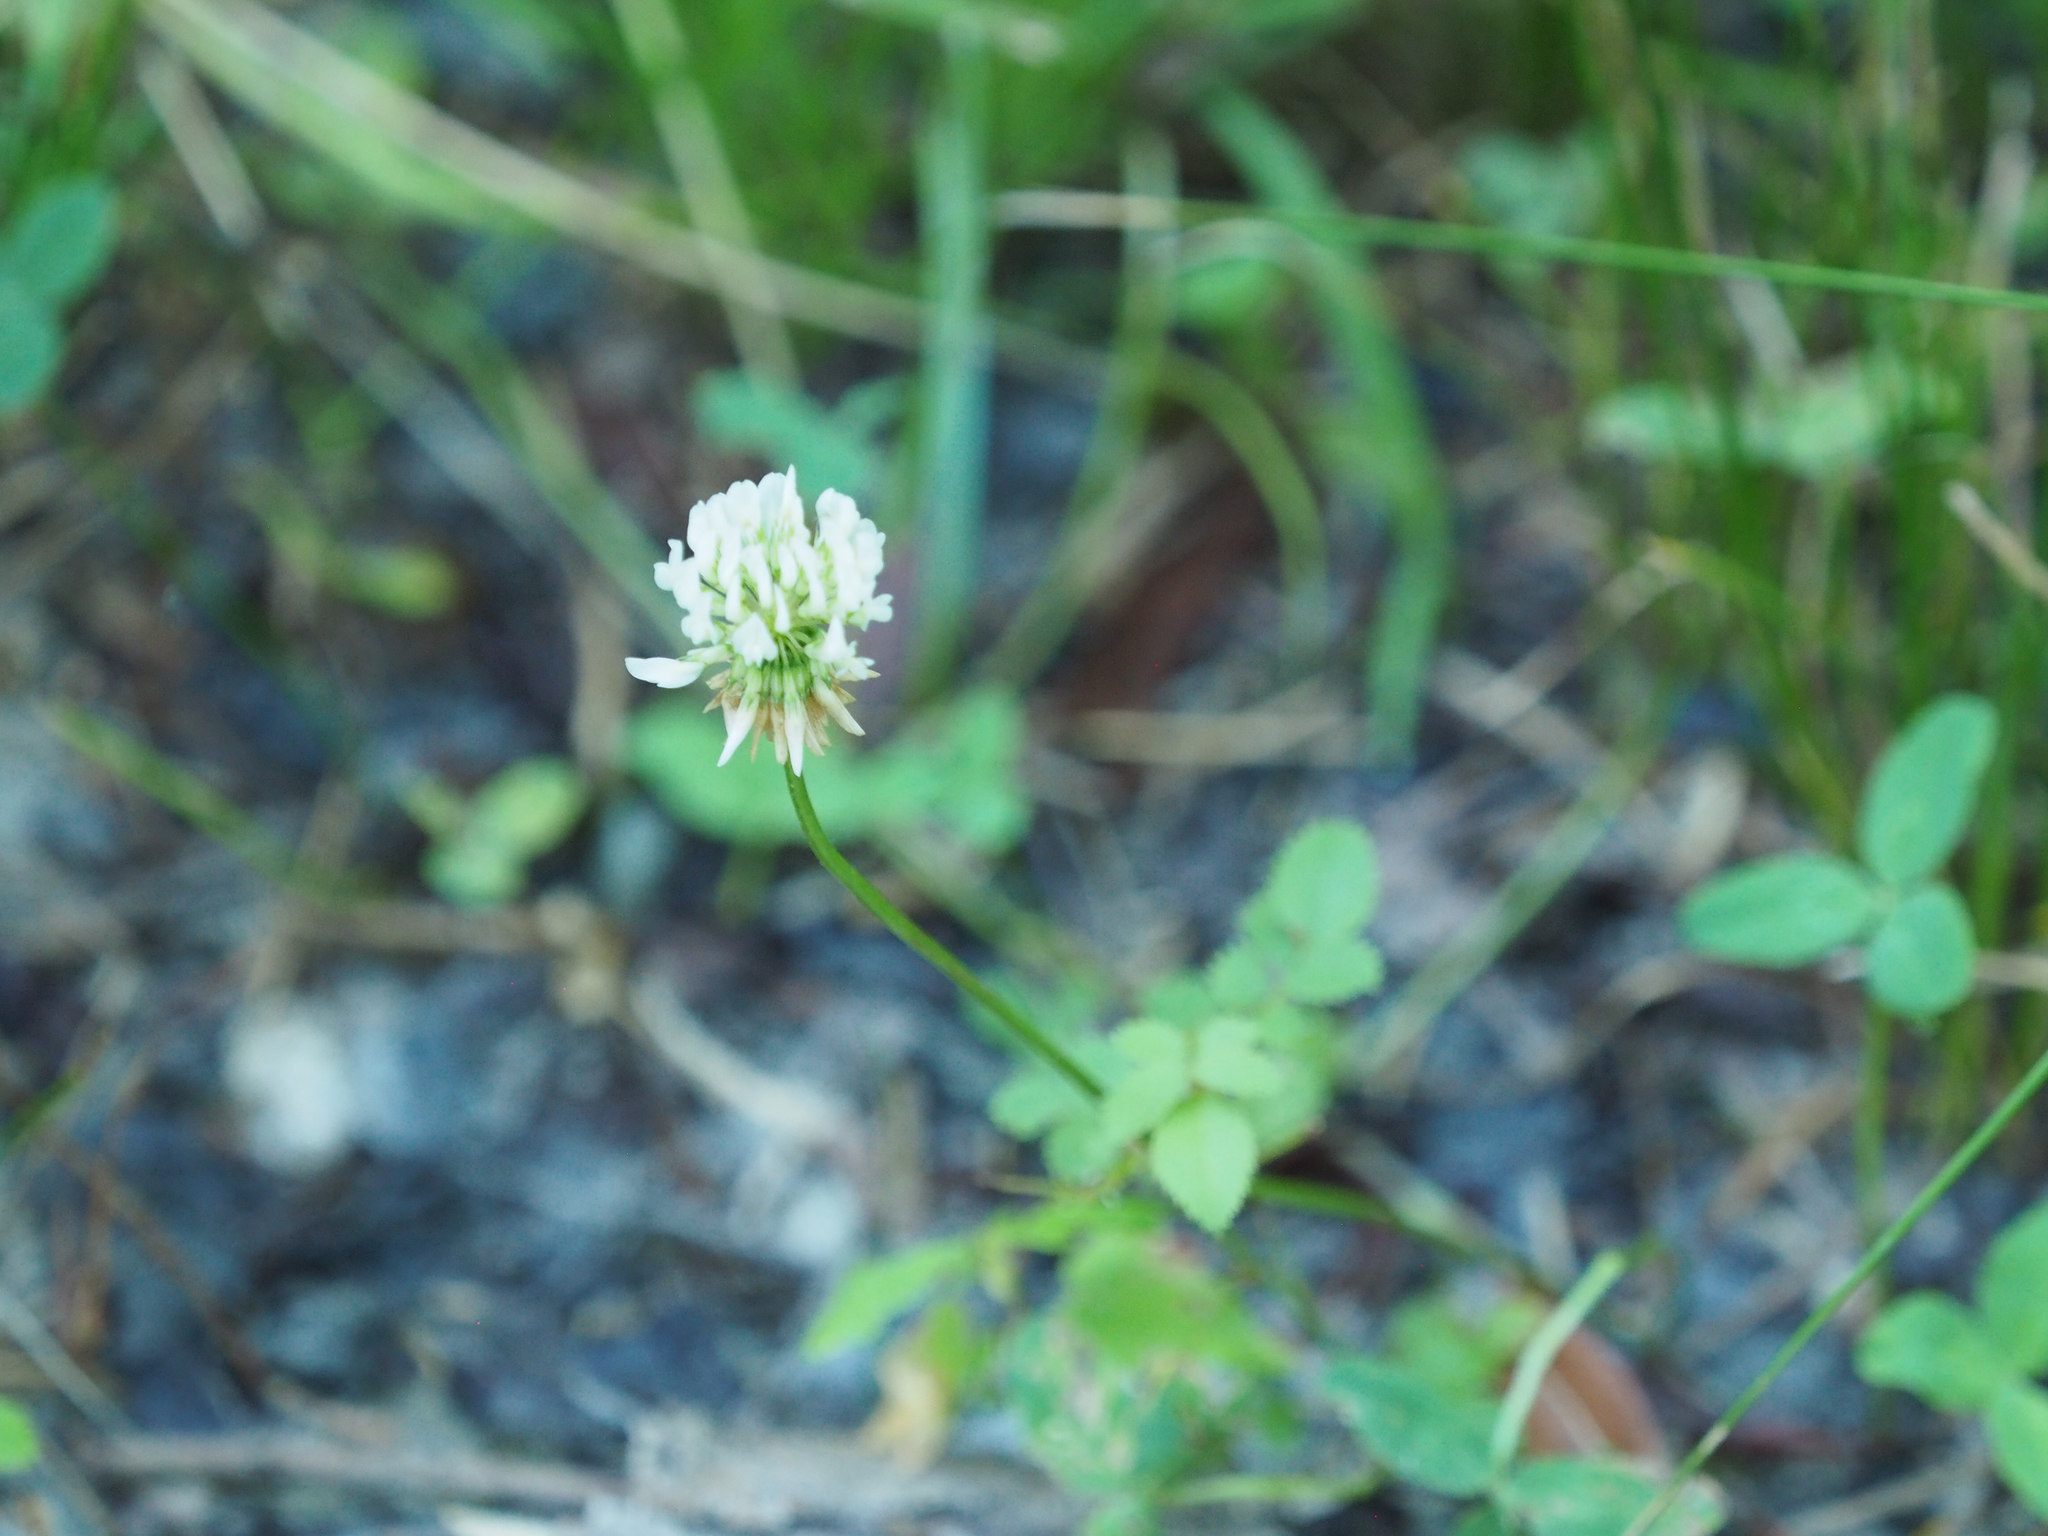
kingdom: Plantae
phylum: Tracheophyta
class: Magnoliopsida
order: Fabales
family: Fabaceae
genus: Trifolium
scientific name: Trifolium repens
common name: White clover
